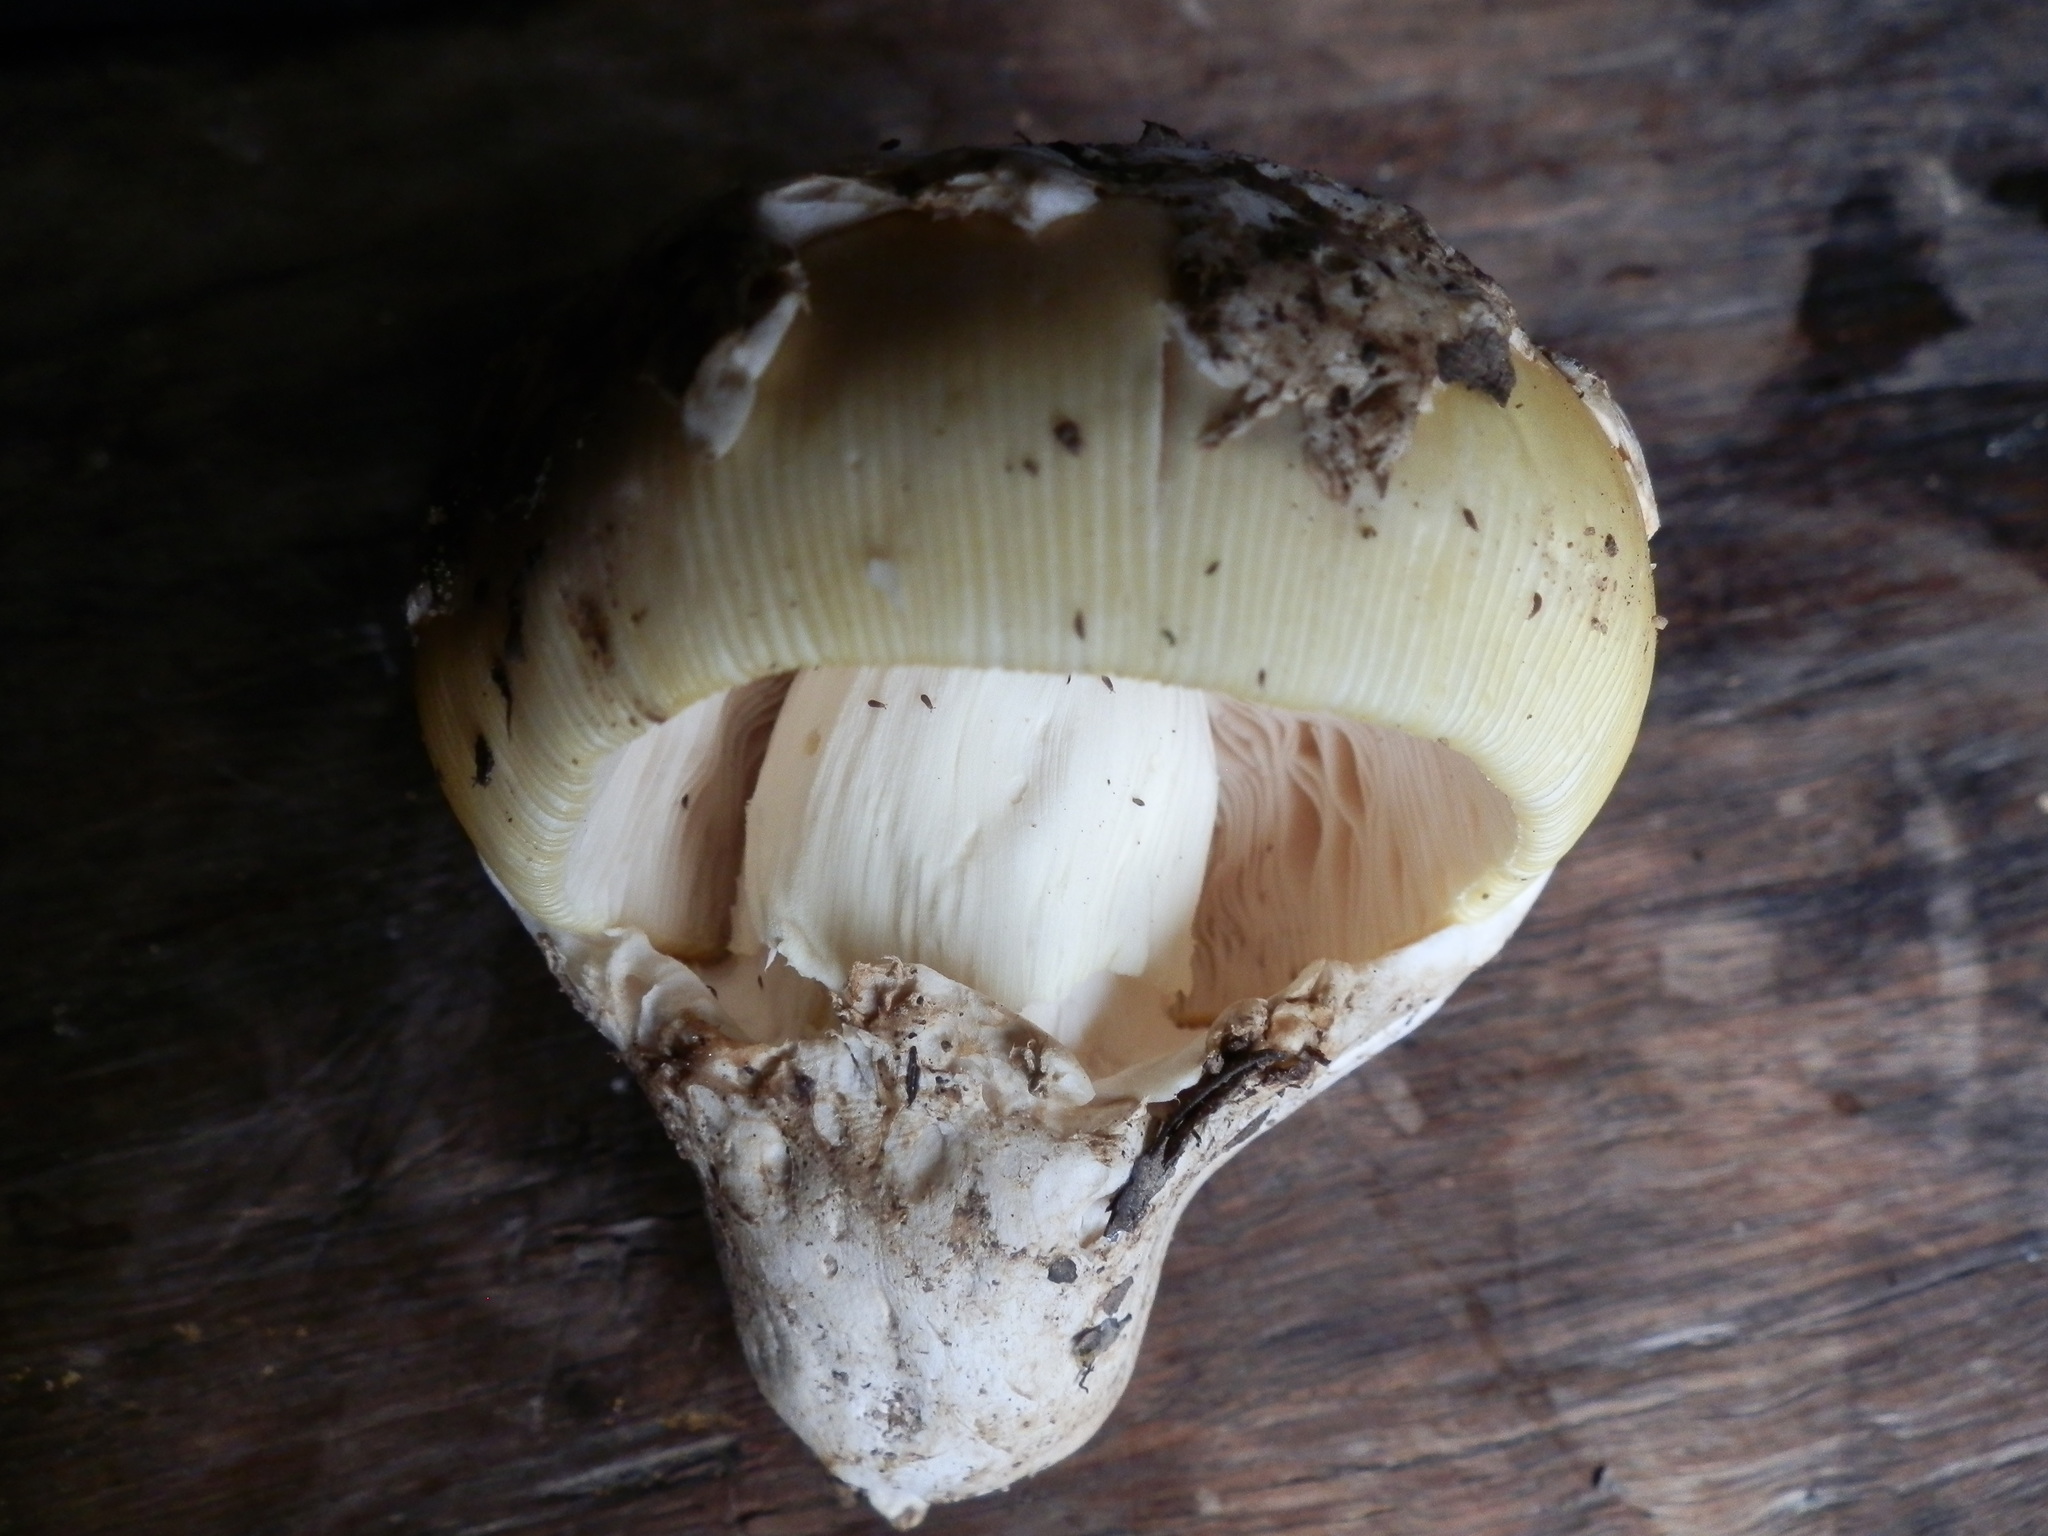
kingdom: Fungi
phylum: Basidiomycota
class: Agaricomycetes
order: Agaricales
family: Amanitaceae
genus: Amanita
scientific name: Amanita calyptroderma
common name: Coccora
